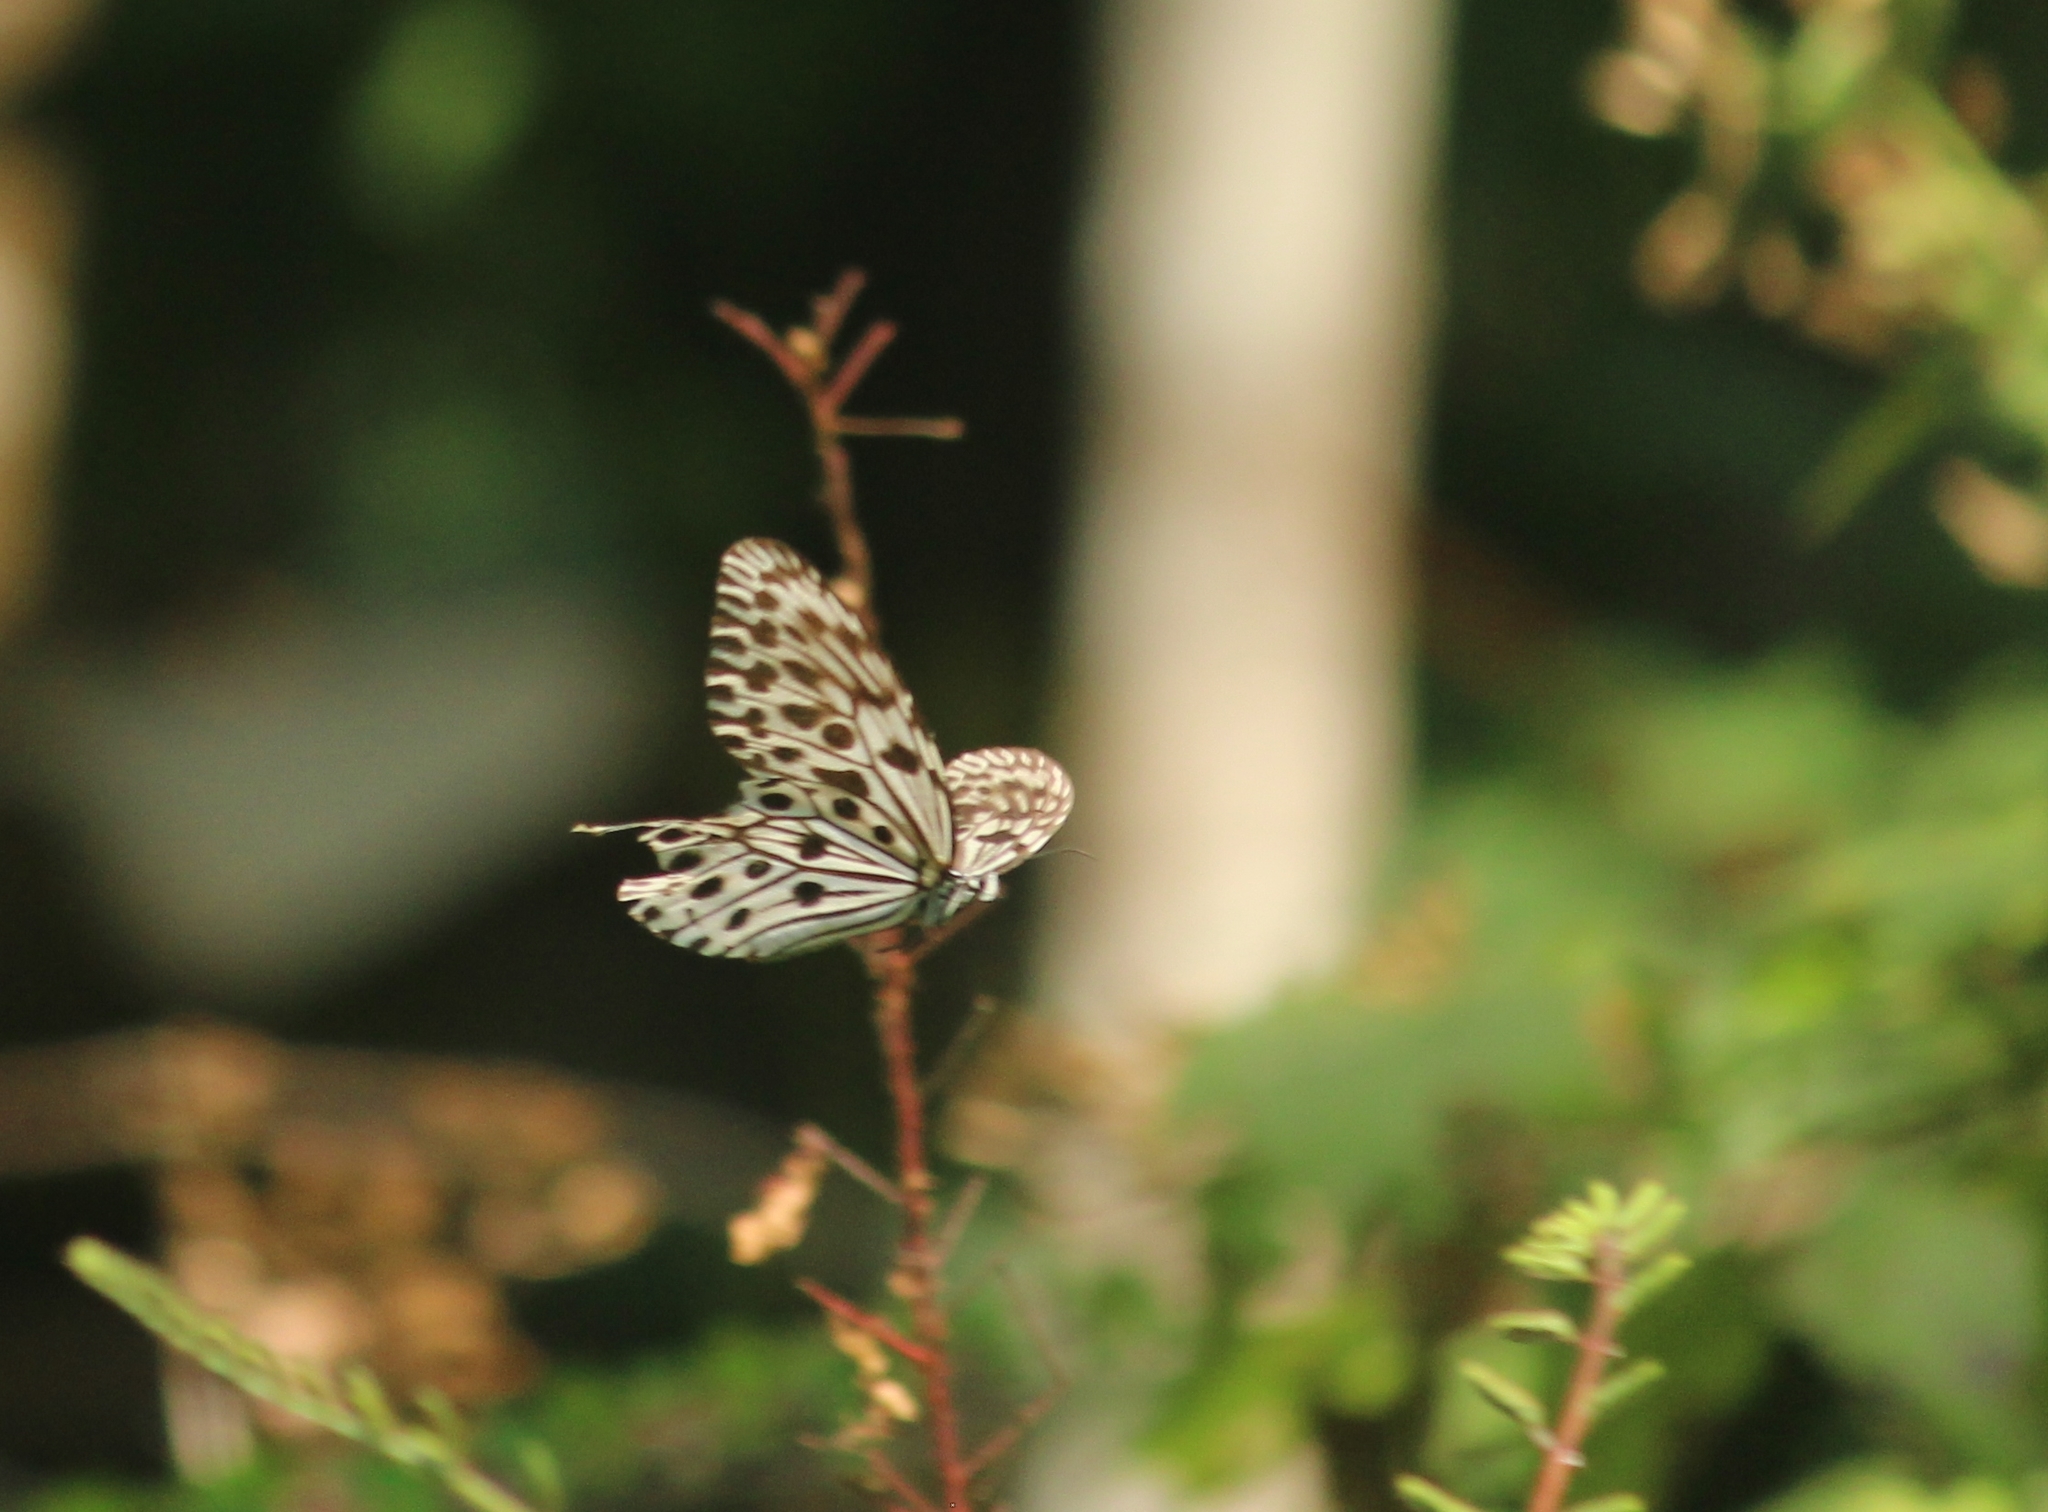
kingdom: Animalia
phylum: Arthropoda
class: Insecta
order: Lepidoptera
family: Nymphalidae
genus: Idea
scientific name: Idea malabarica
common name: Malabar tree-nymph
